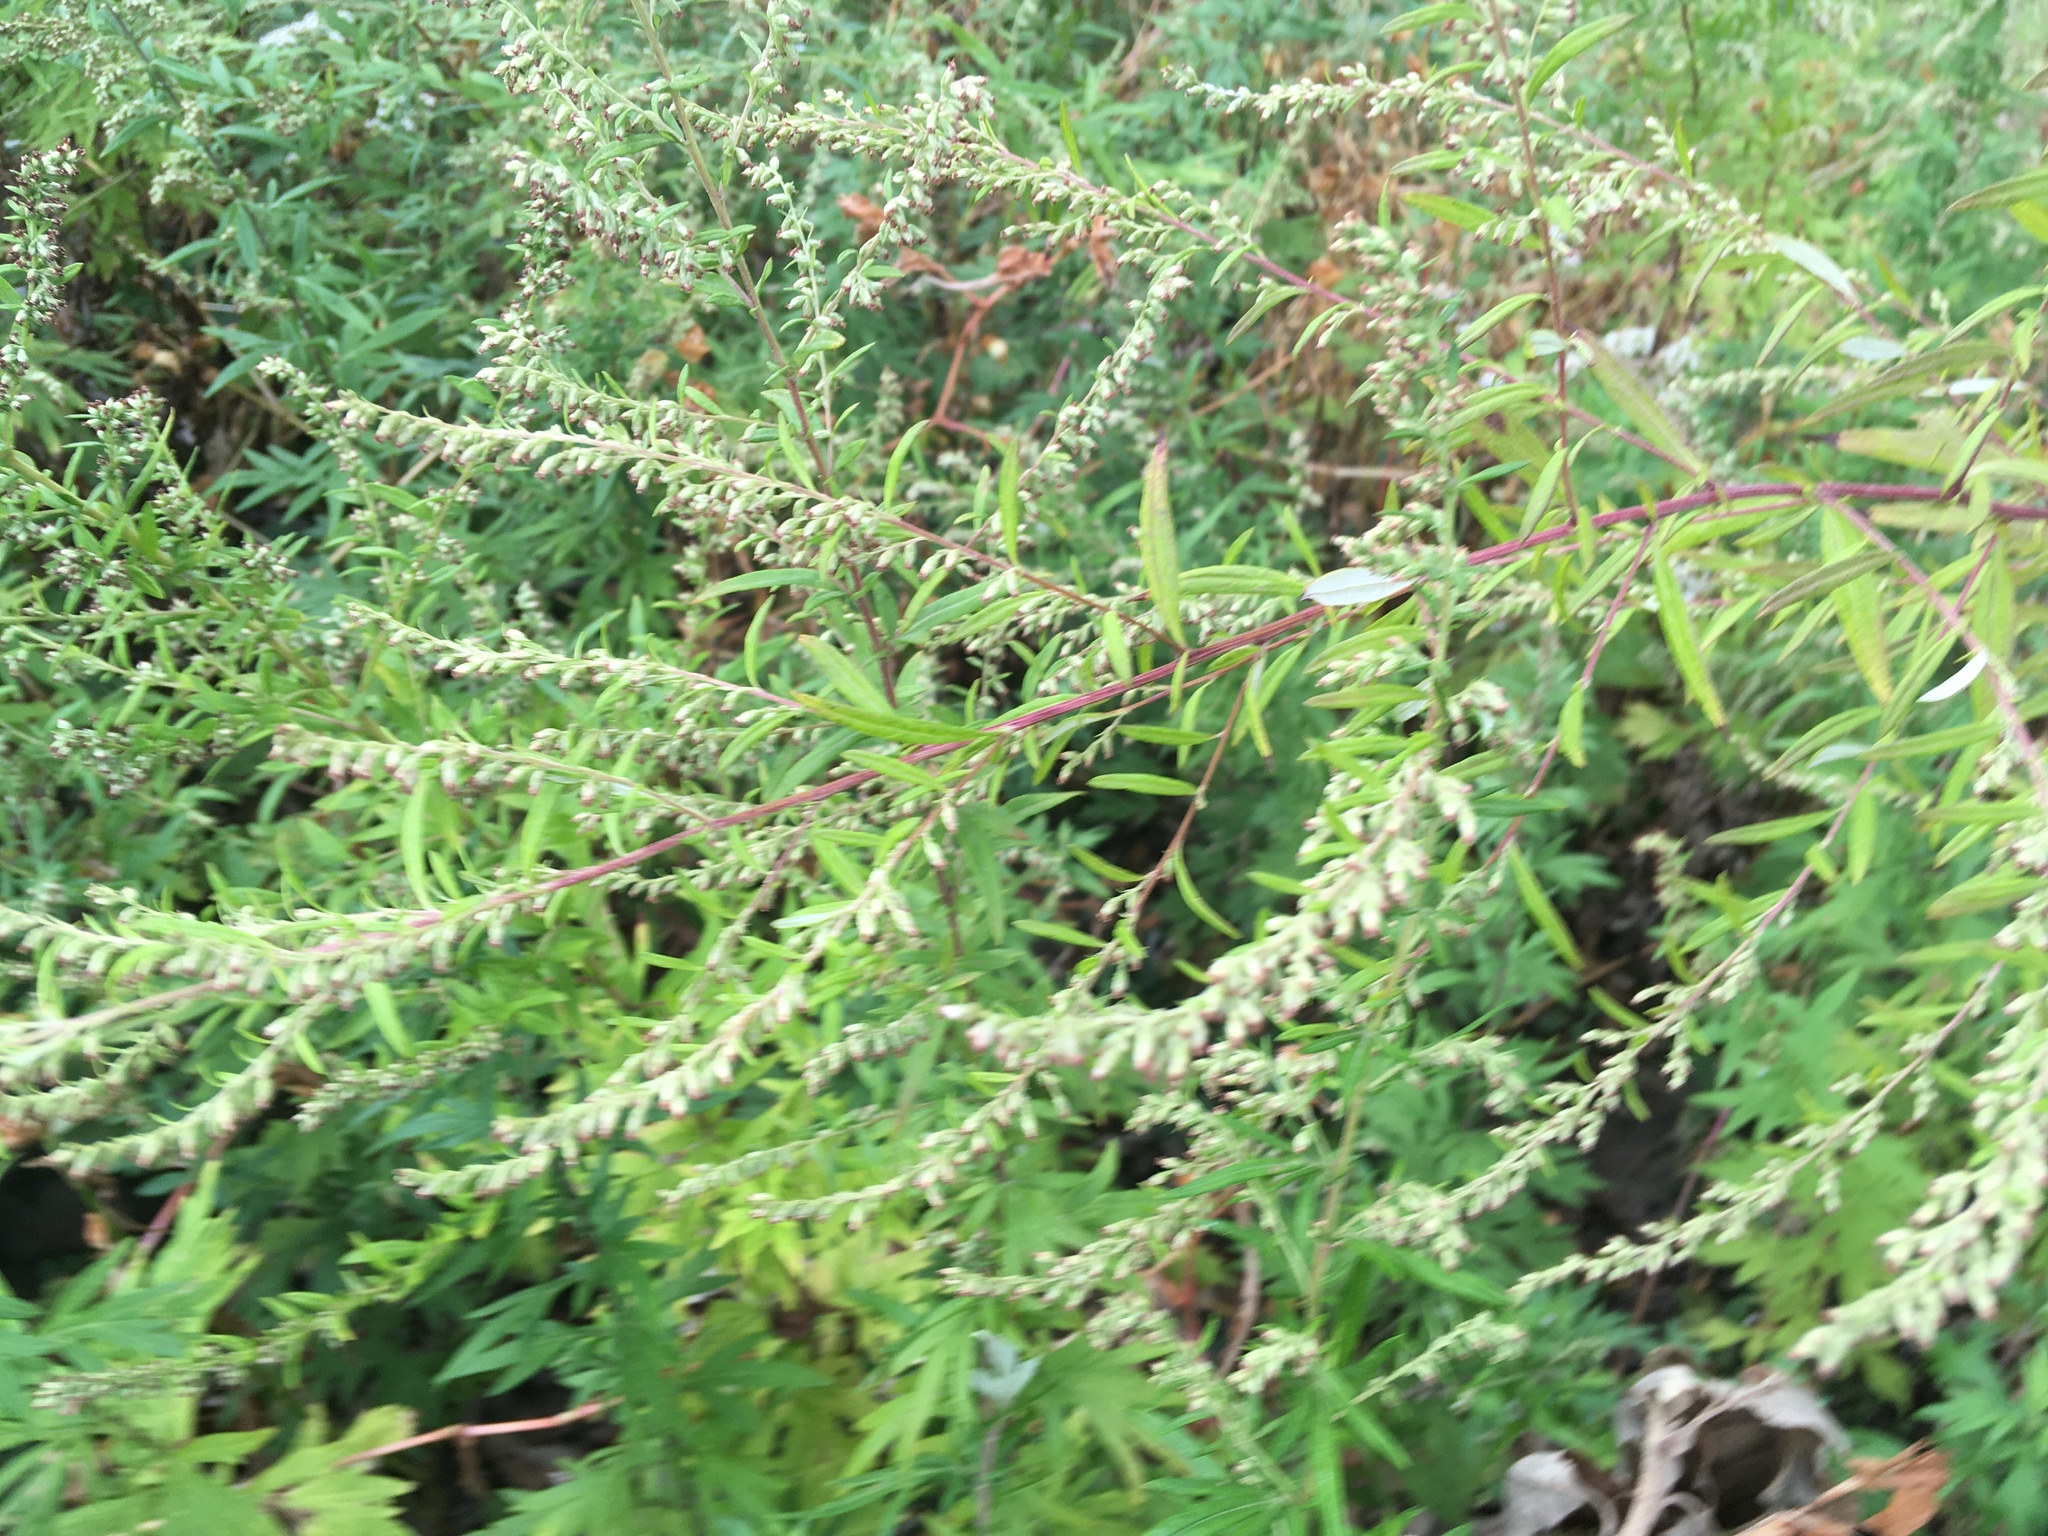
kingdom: Plantae
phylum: Tracheophyta
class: Magnoliopsida
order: Asterales
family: Asteraceae
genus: Artemisia
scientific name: Artemisia vulgaris
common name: Mugwort
